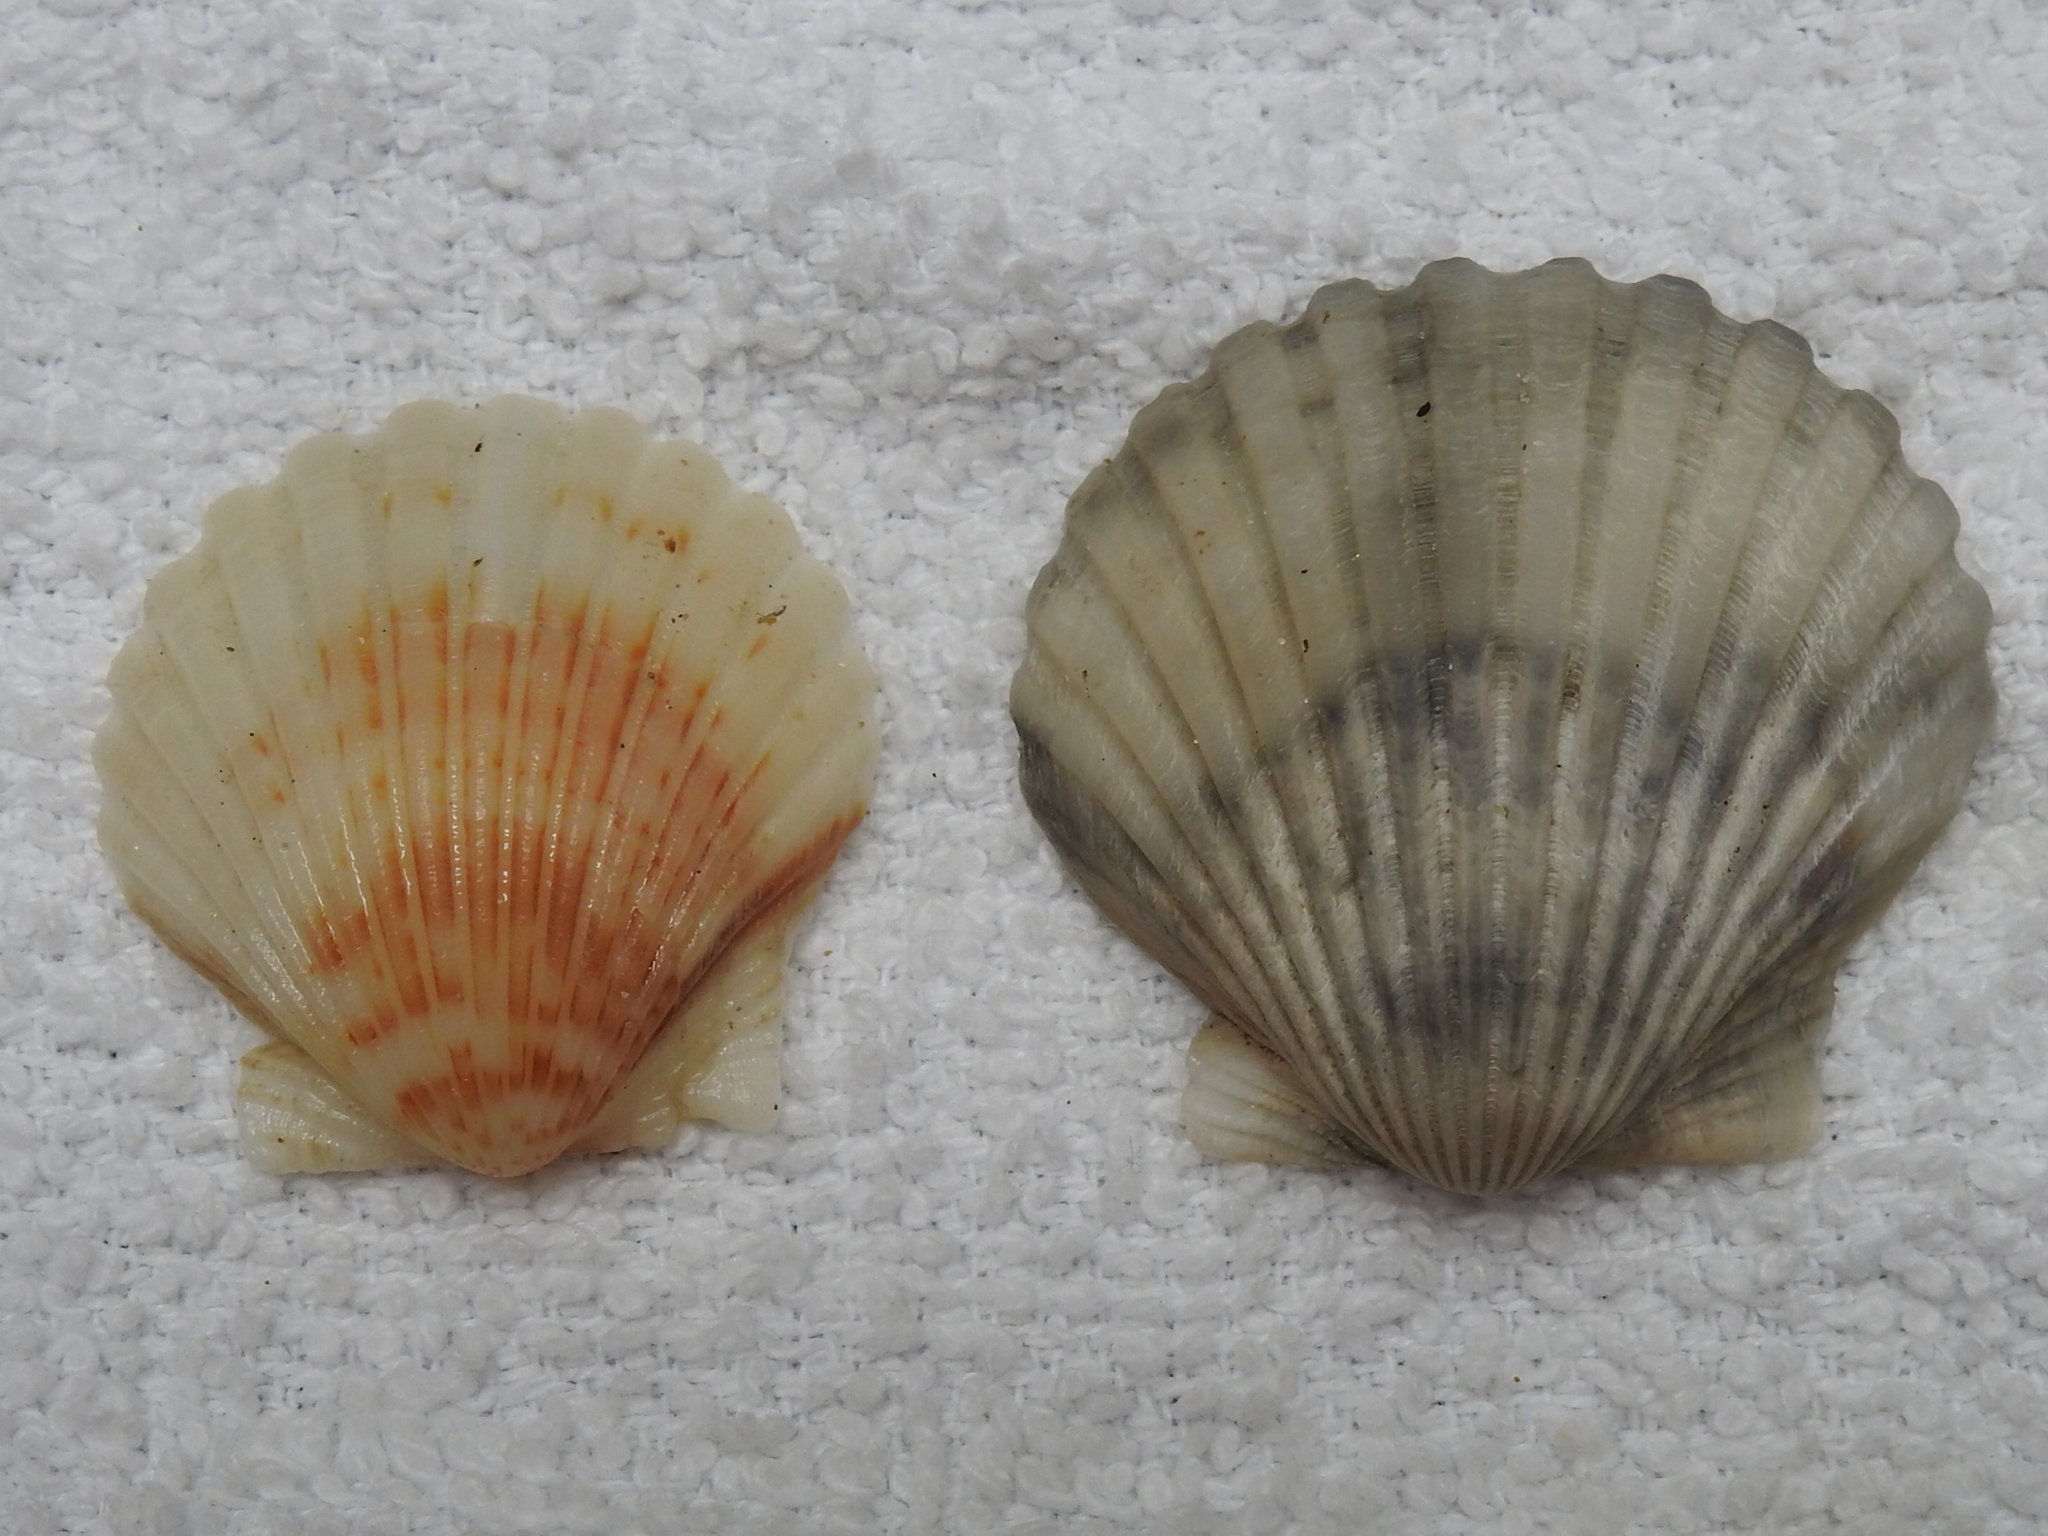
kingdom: Animalia
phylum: Mollusca
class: Bivalvia
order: Pectinida
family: Pectinidae
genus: Argopecten
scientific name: Argopecten irradians
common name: Atlantic bay scallop
